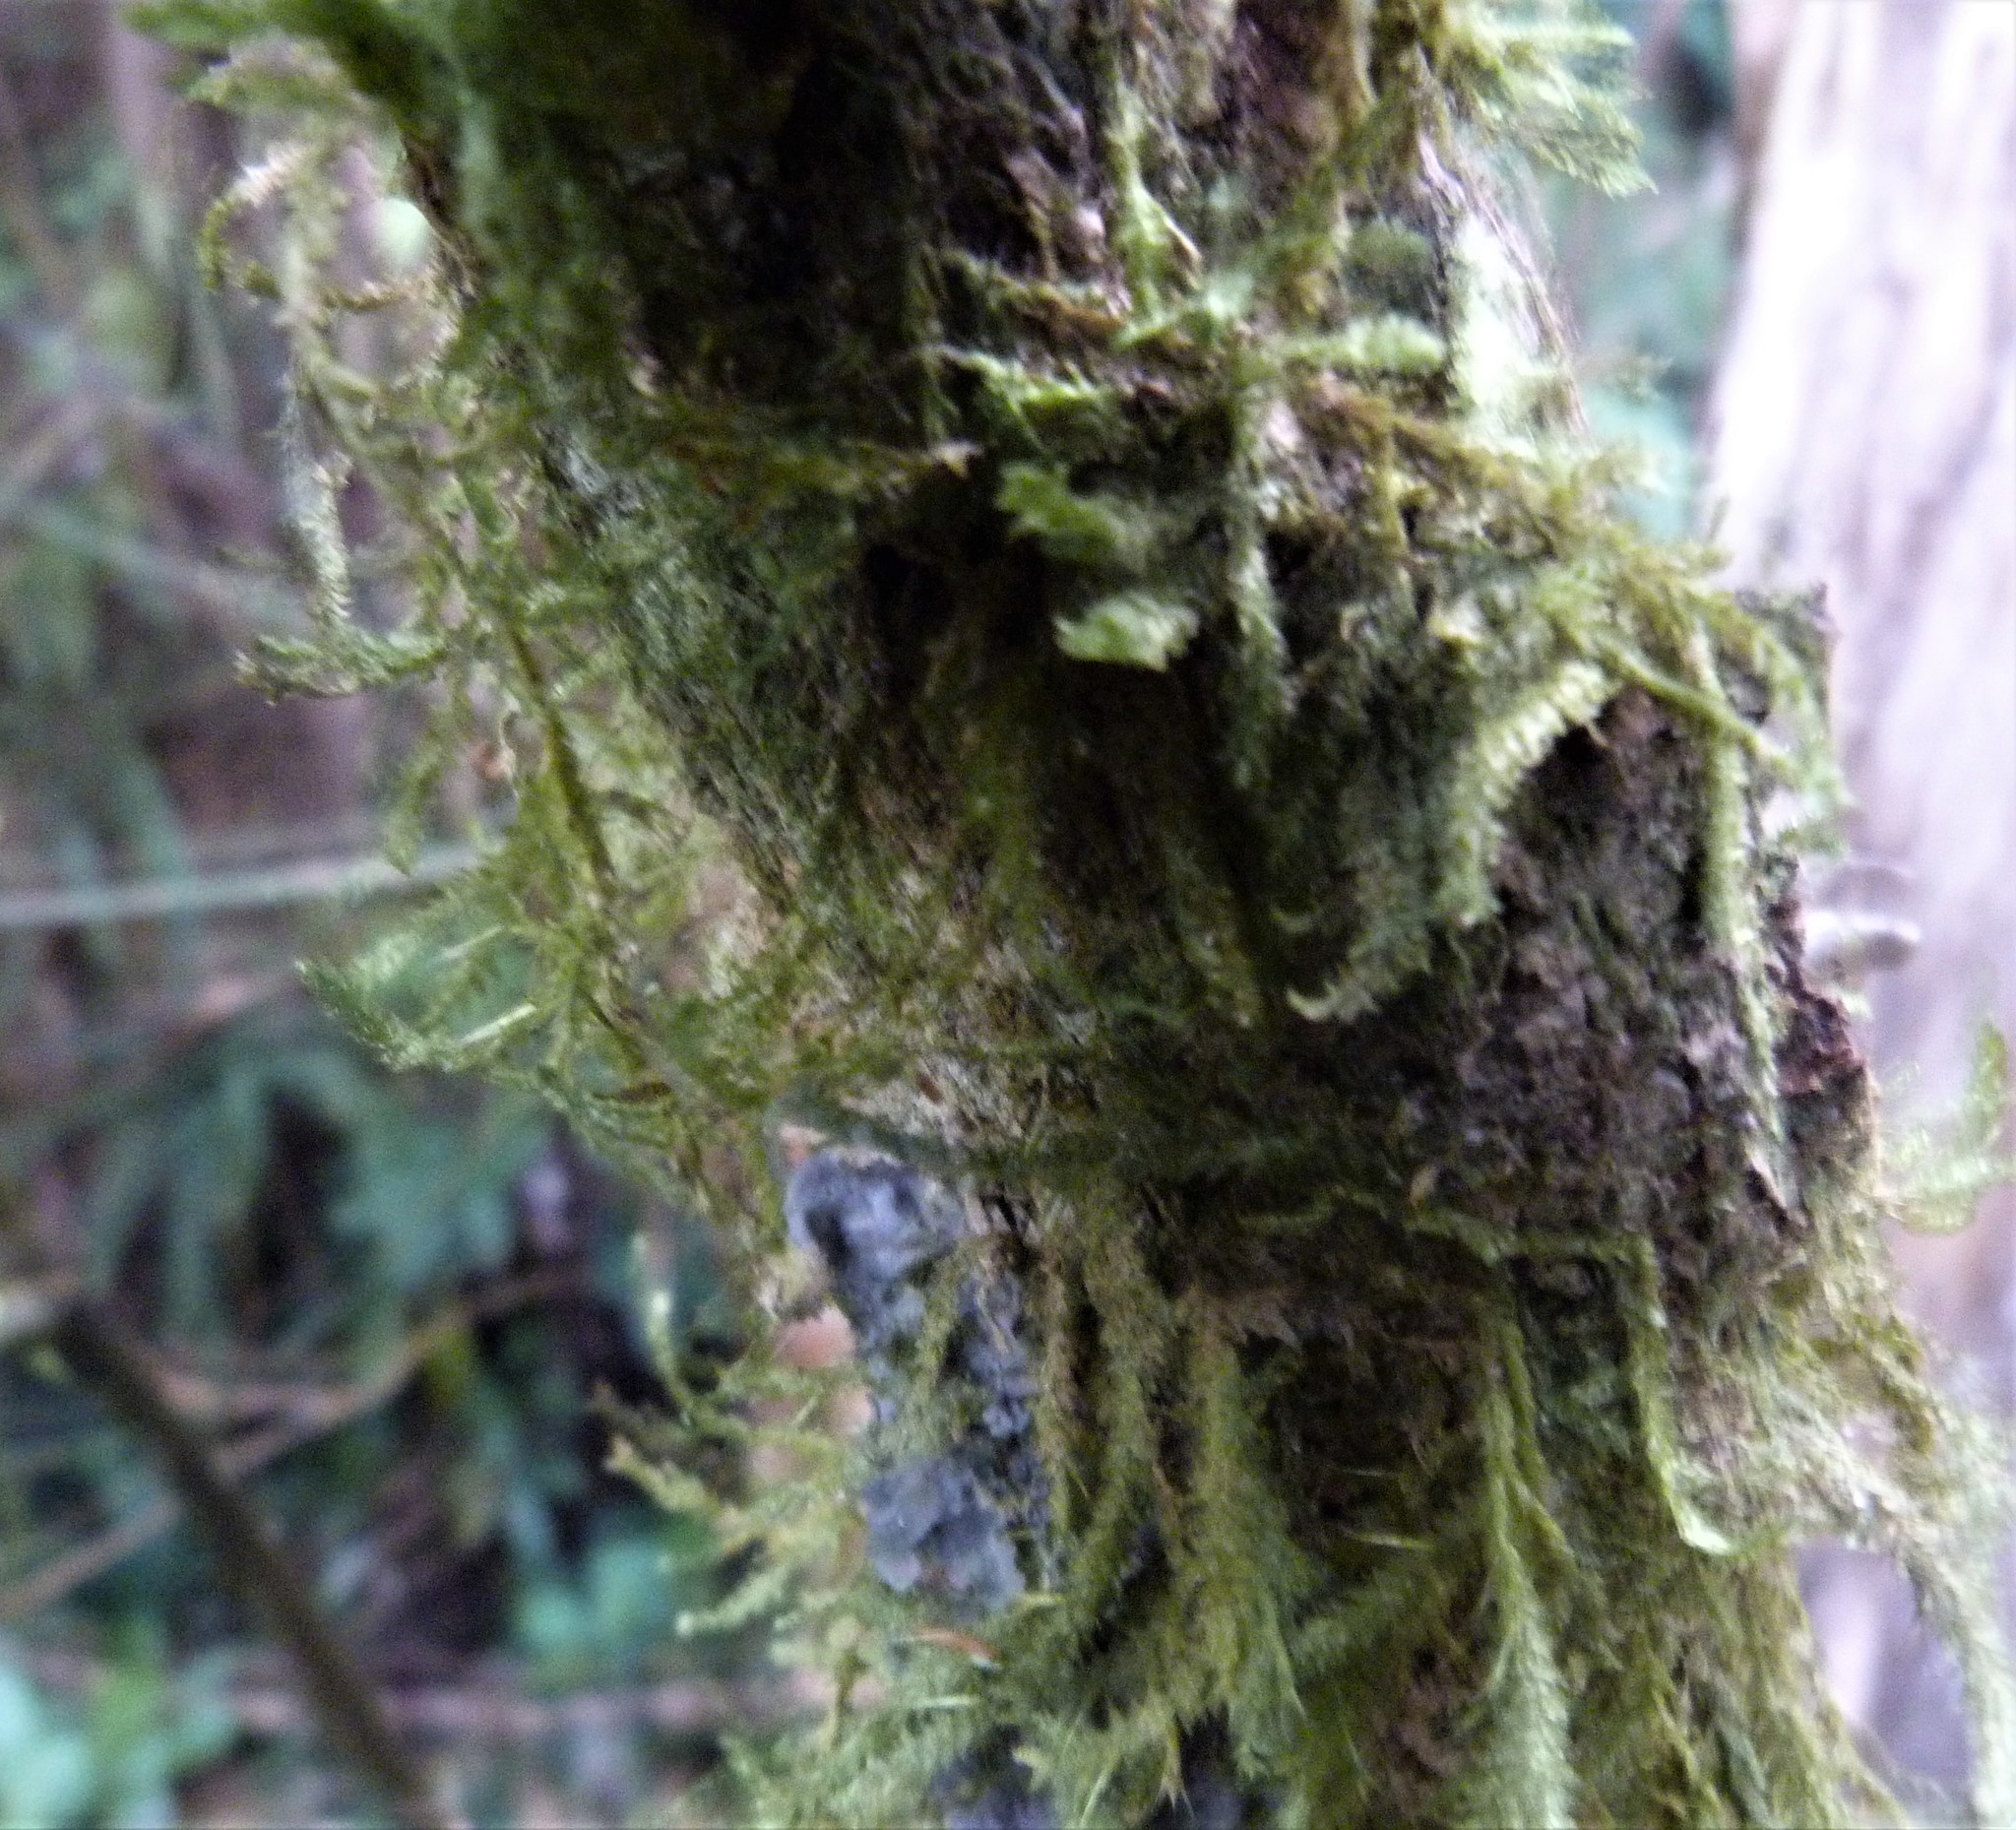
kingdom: Plantae
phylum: Bryophyta
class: Bryopsida
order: Hypnales
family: Neckeraceae
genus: Alleniella
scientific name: Alleniella hymenodonta
